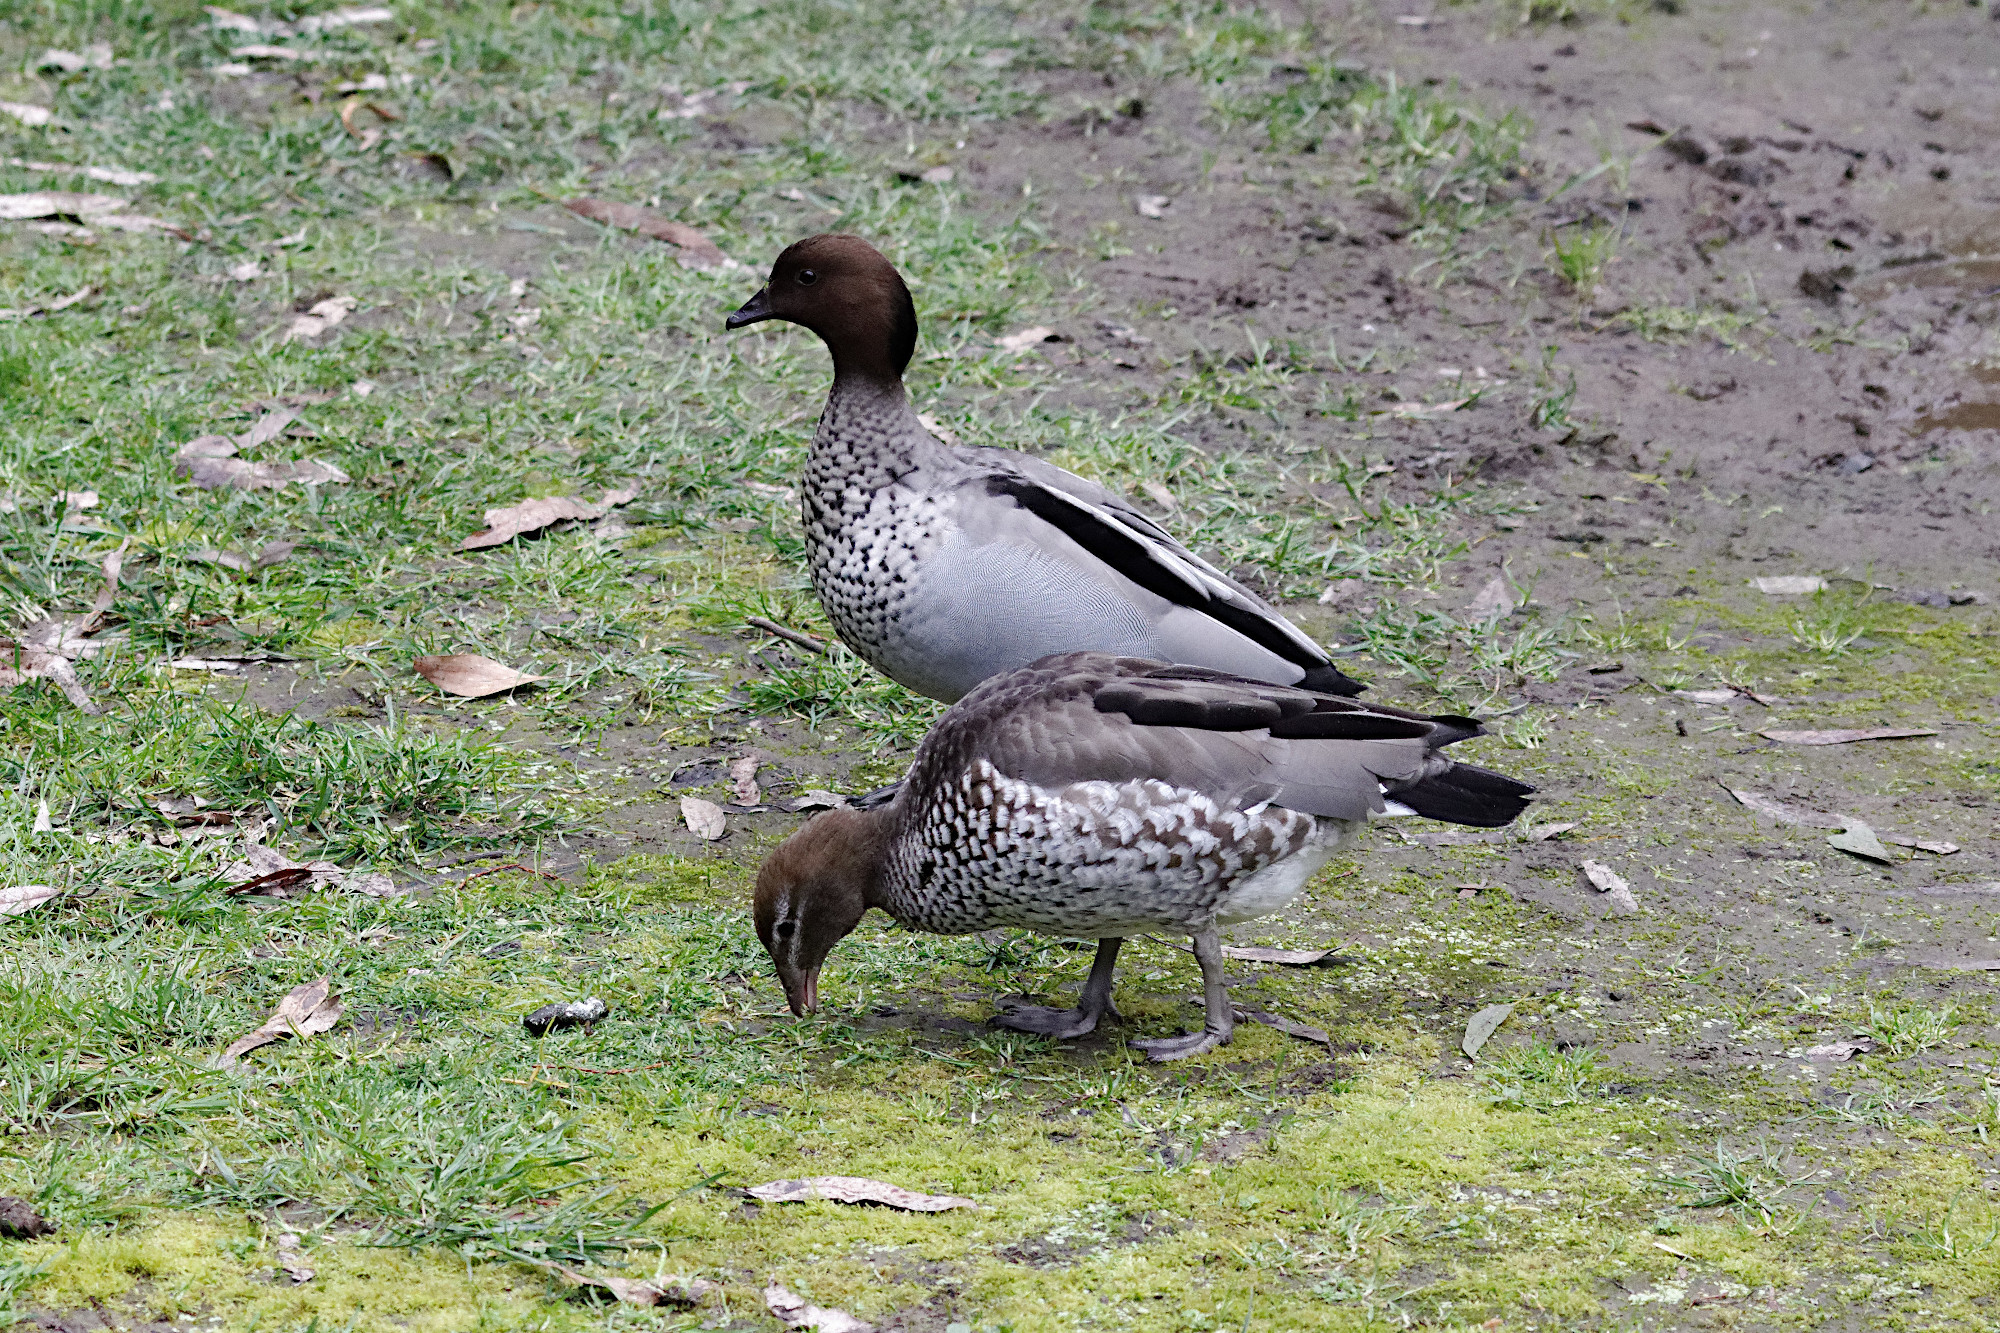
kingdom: Animalia
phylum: Chordata
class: Aves
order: Anseriformes
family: Anatidae
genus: Chenonetta
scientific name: Chenonetta jubata
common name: Maned duck
